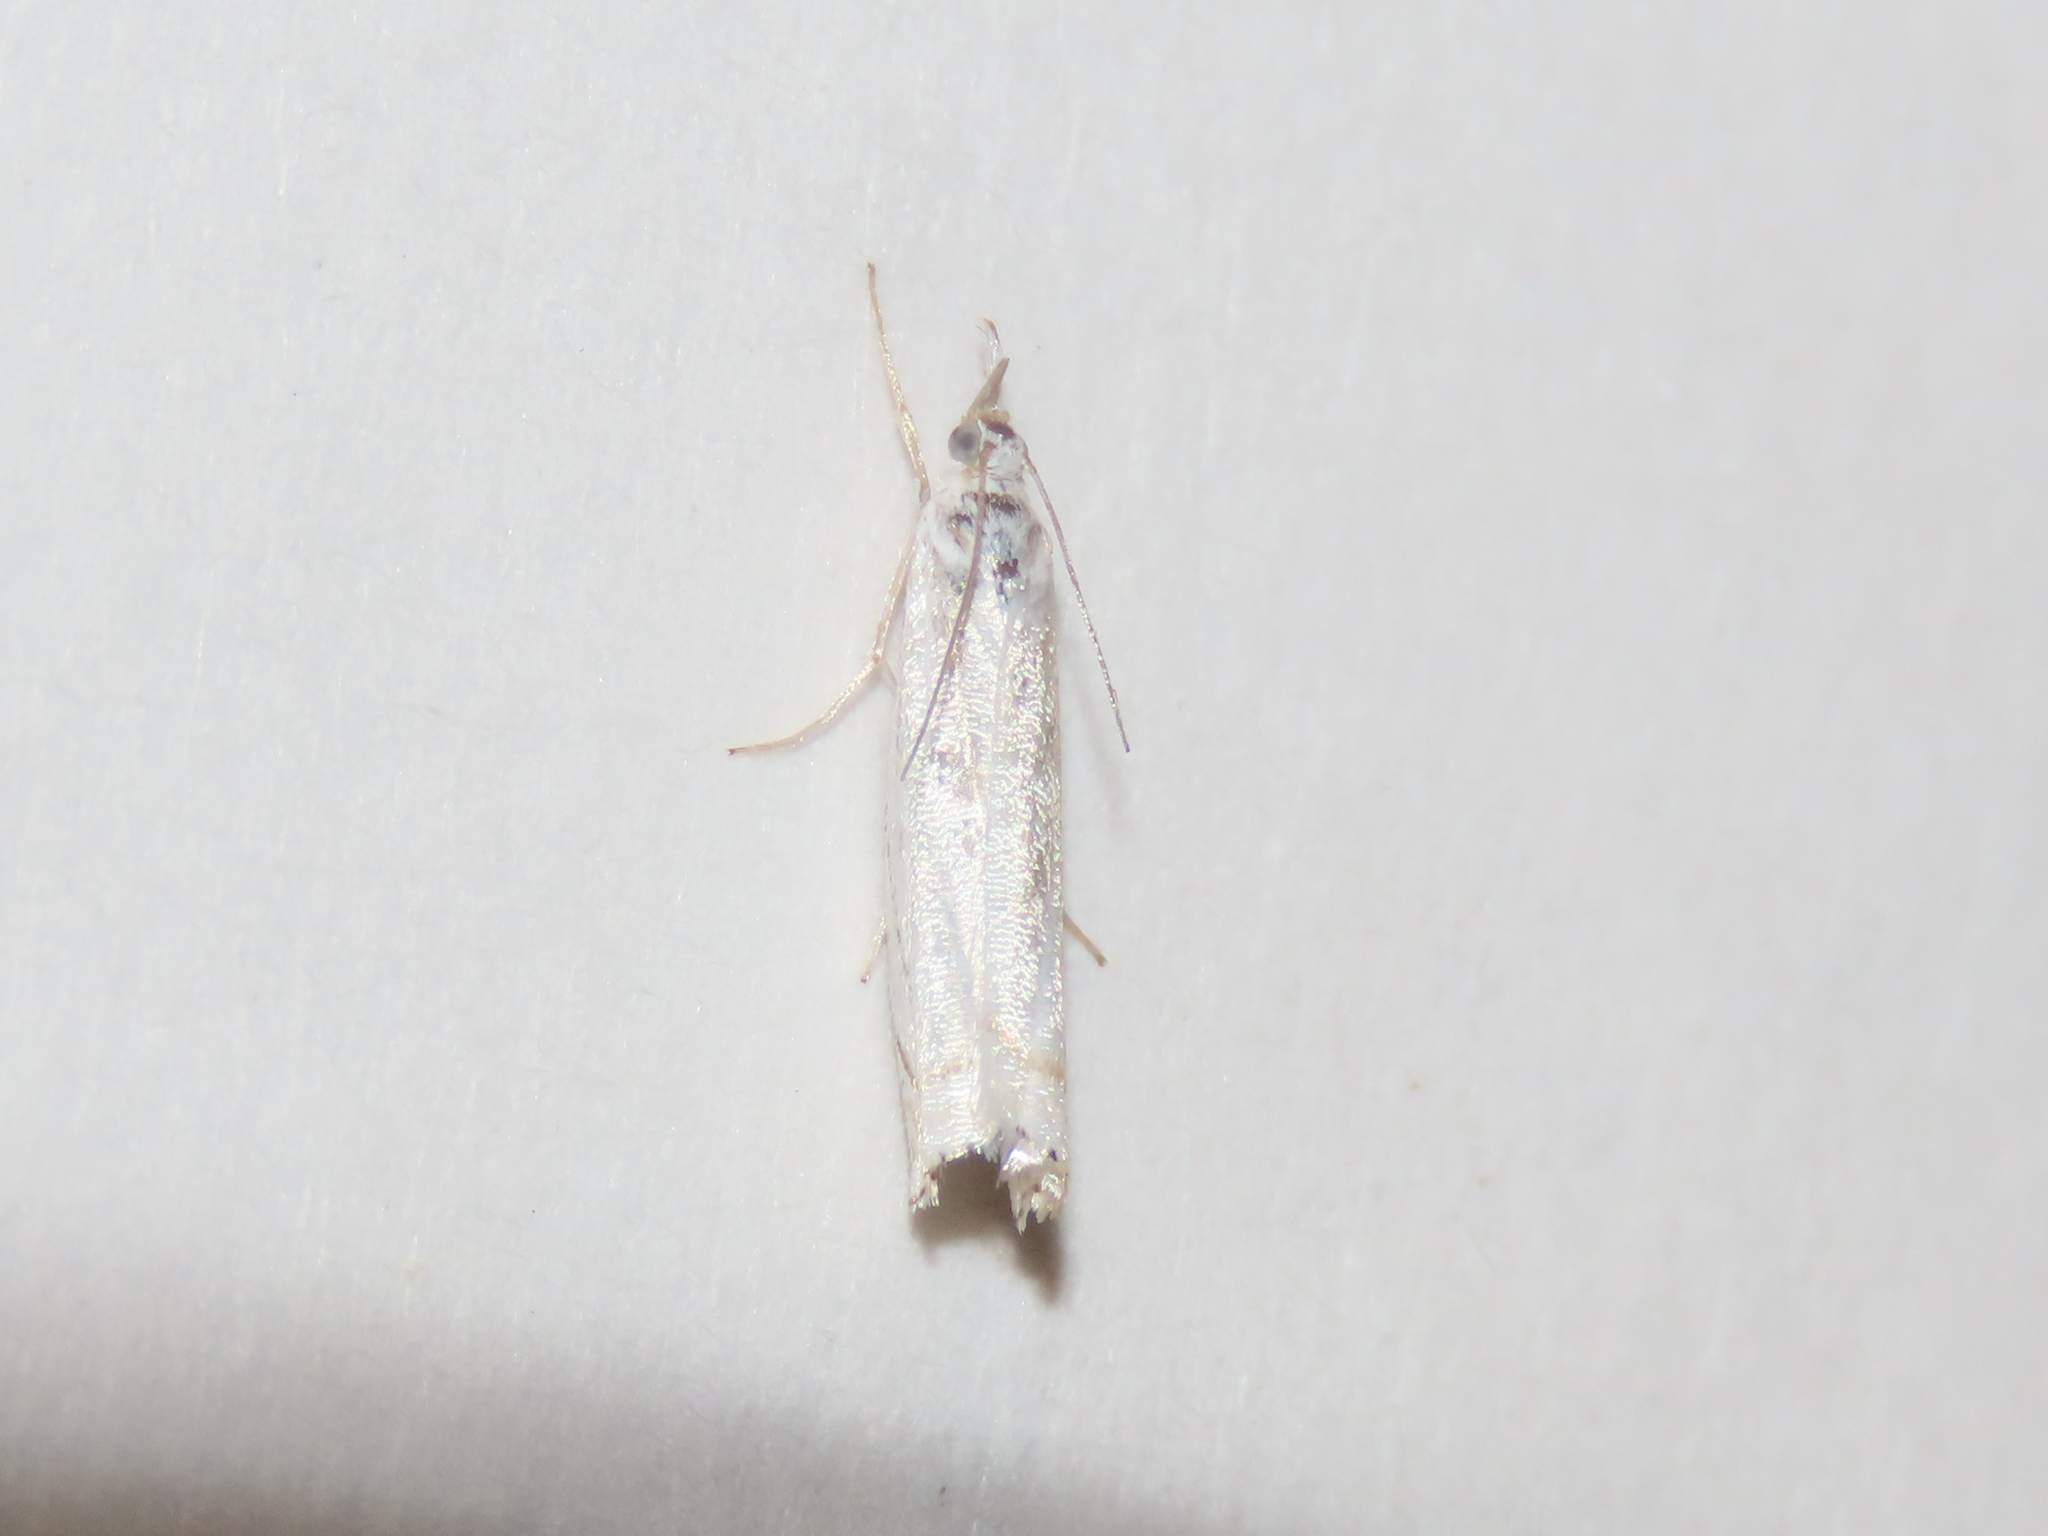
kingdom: Animalia
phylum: Arthropoda
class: Insecta
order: Lepidoptera
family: Crambidae
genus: Crambus
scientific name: Crambus albellus
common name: Small white grass-veneer
